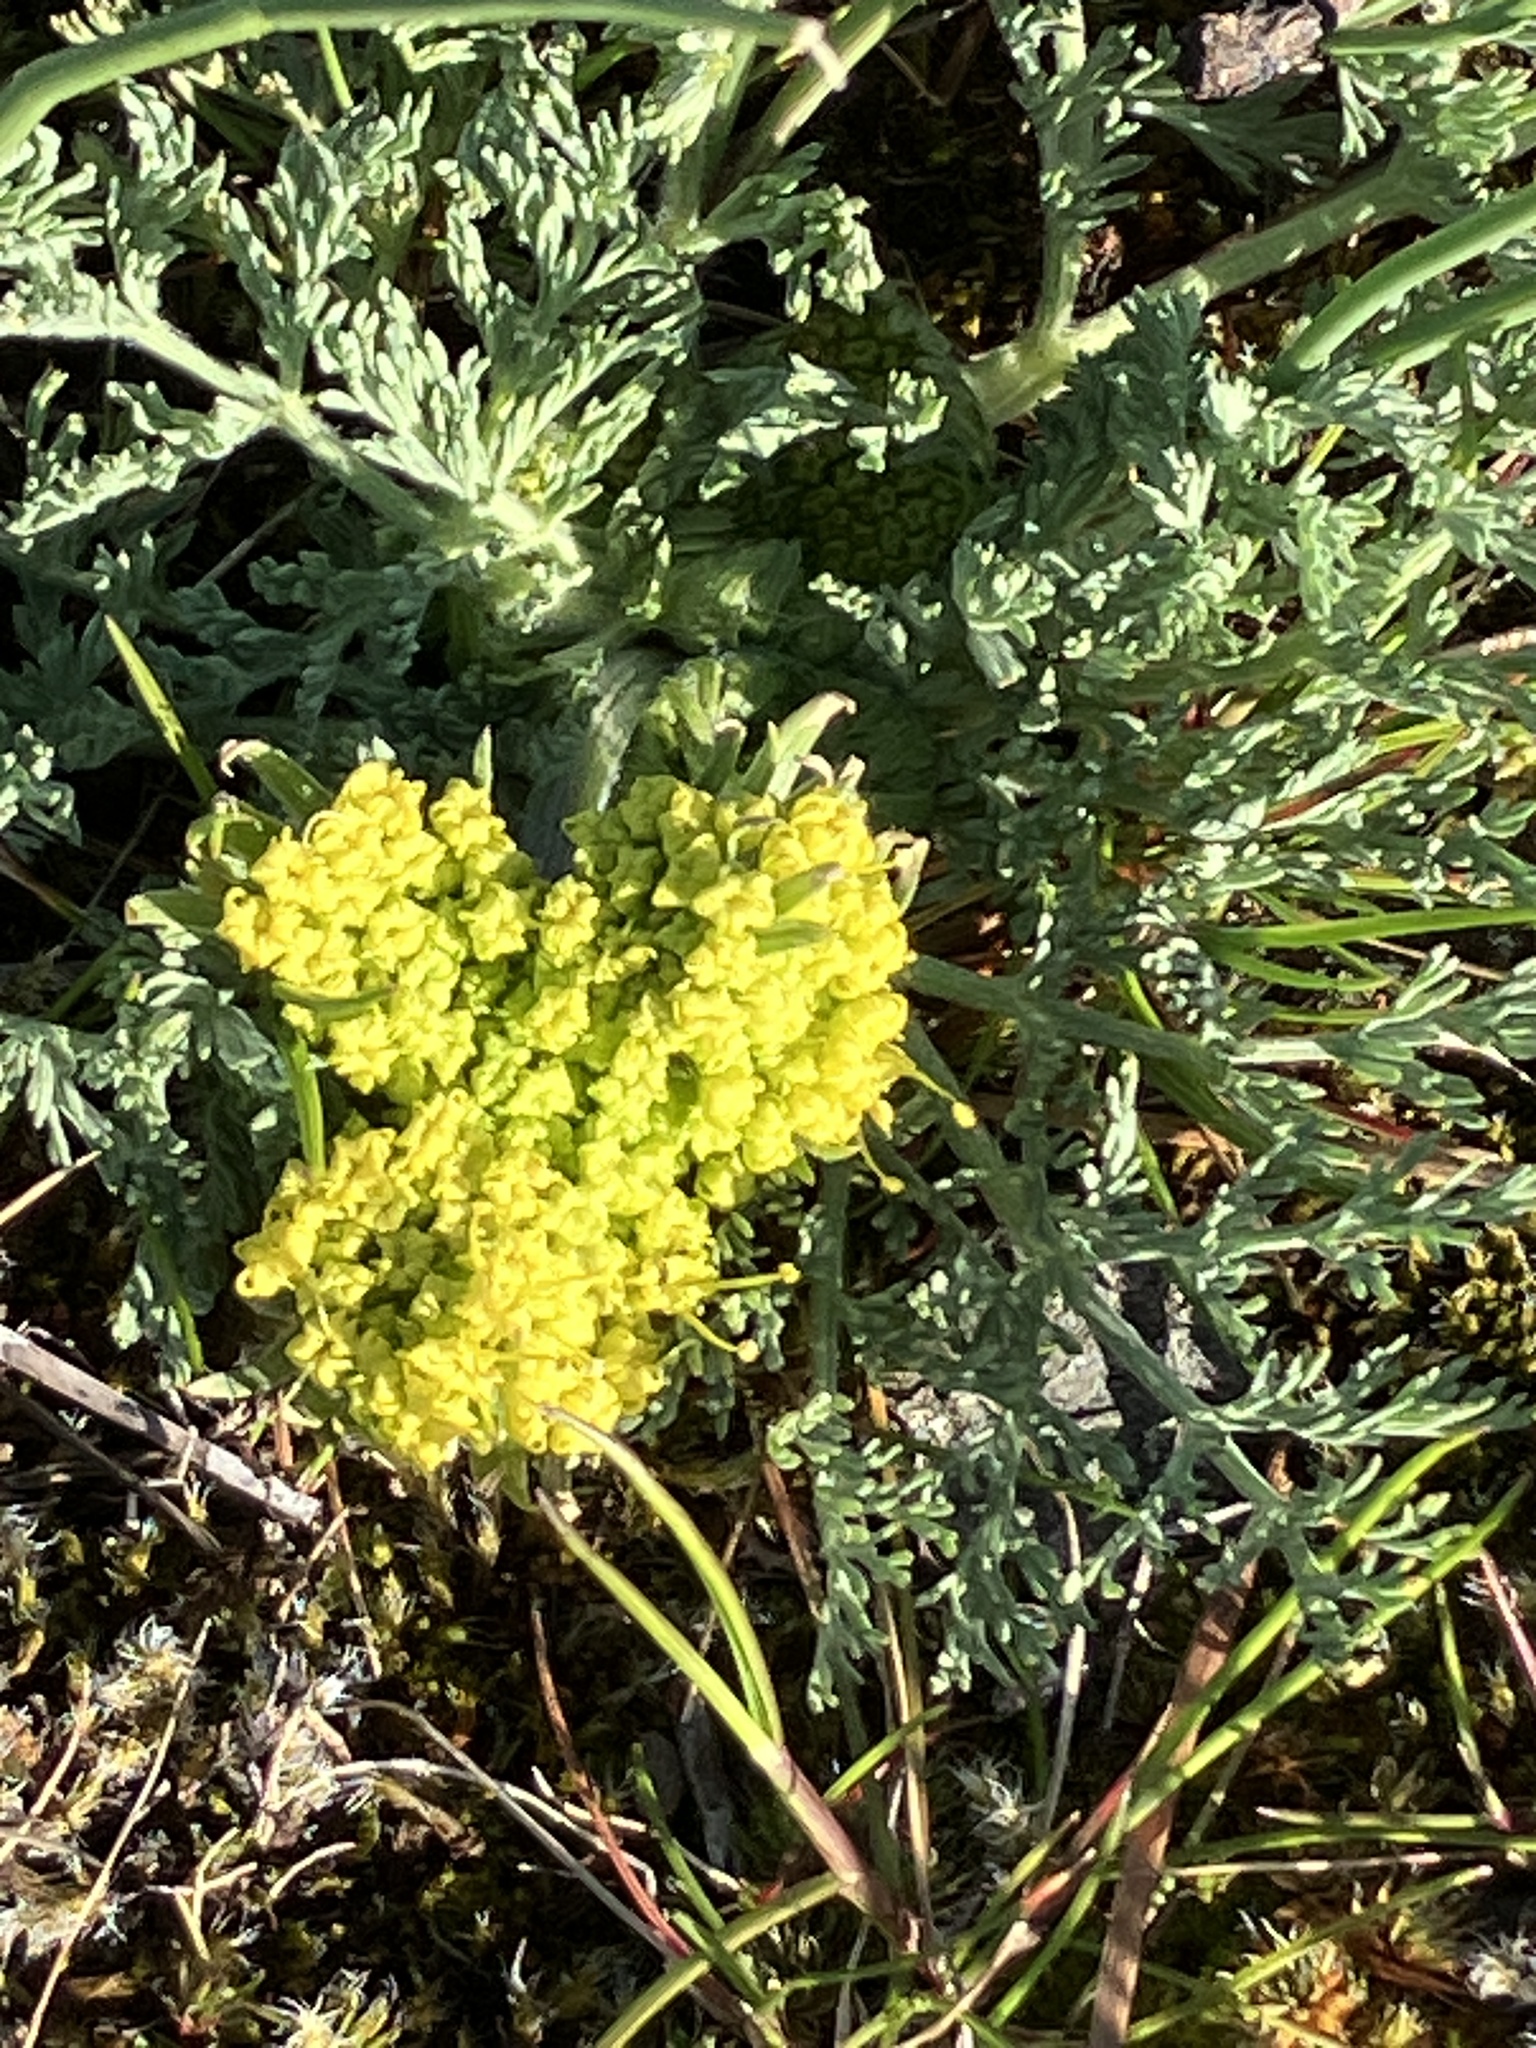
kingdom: Plantae
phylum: Tracheophyta
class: Magnoliopsida
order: Apiales
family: Apiaceae
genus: Lomatium
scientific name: Lomatium macrocarpum
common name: Big-seed biscuitroot
